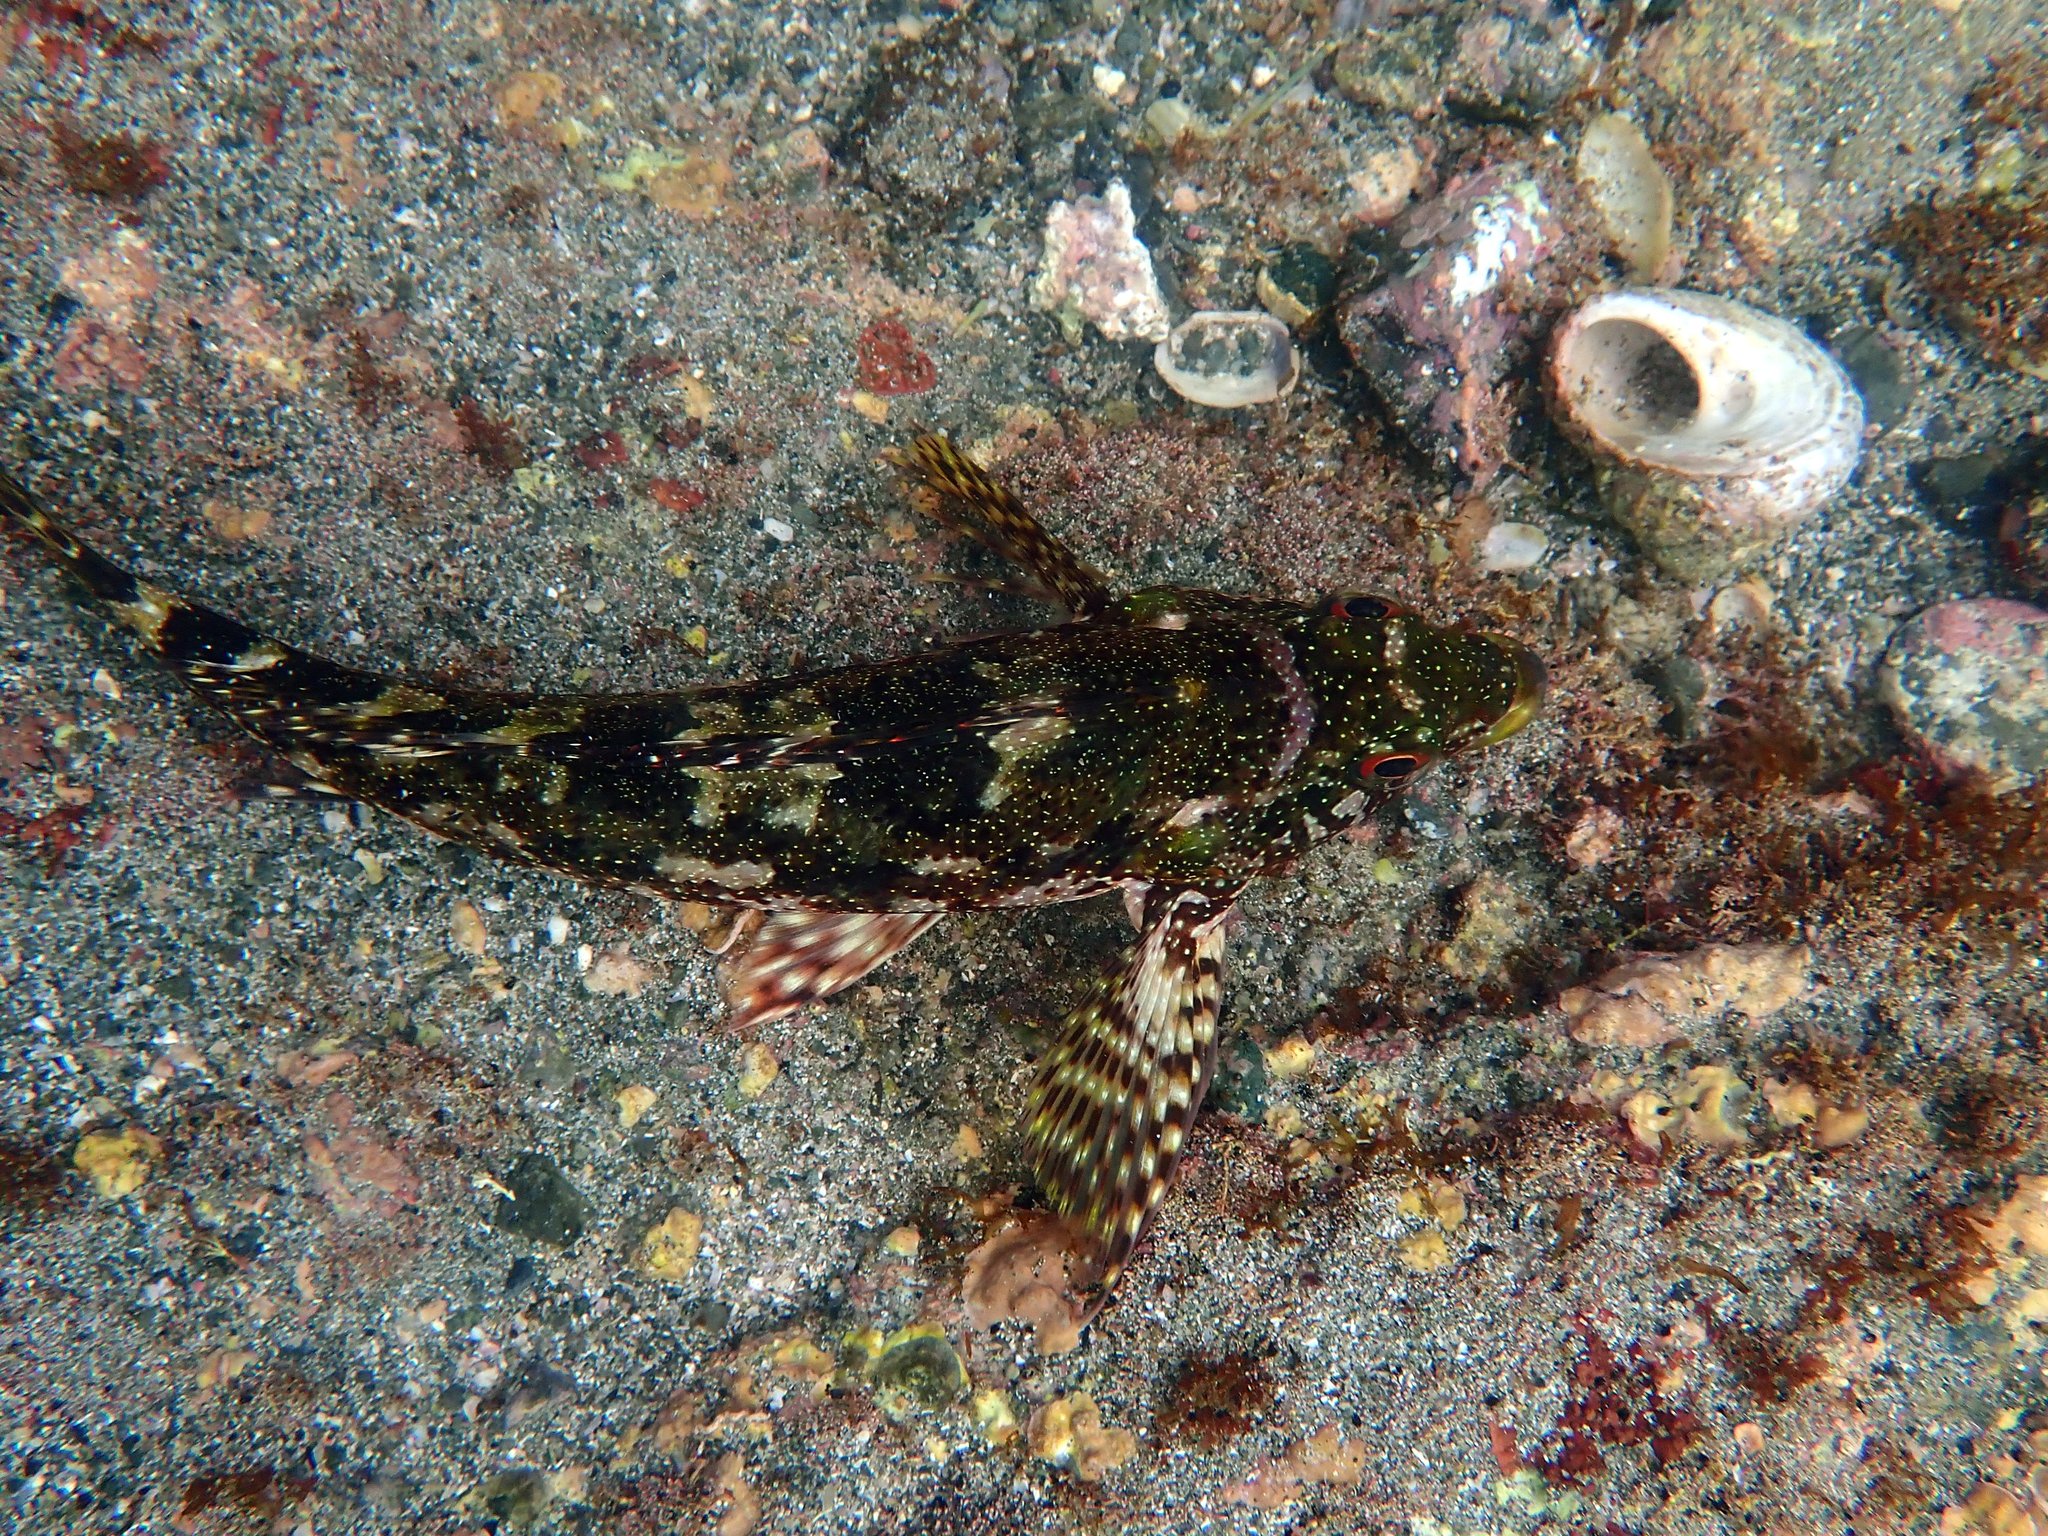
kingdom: Animalia
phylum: Chordata
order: Perciformes
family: Chironemidae
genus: Chironemus
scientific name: Chironemus marmoratus
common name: Kelpfish
